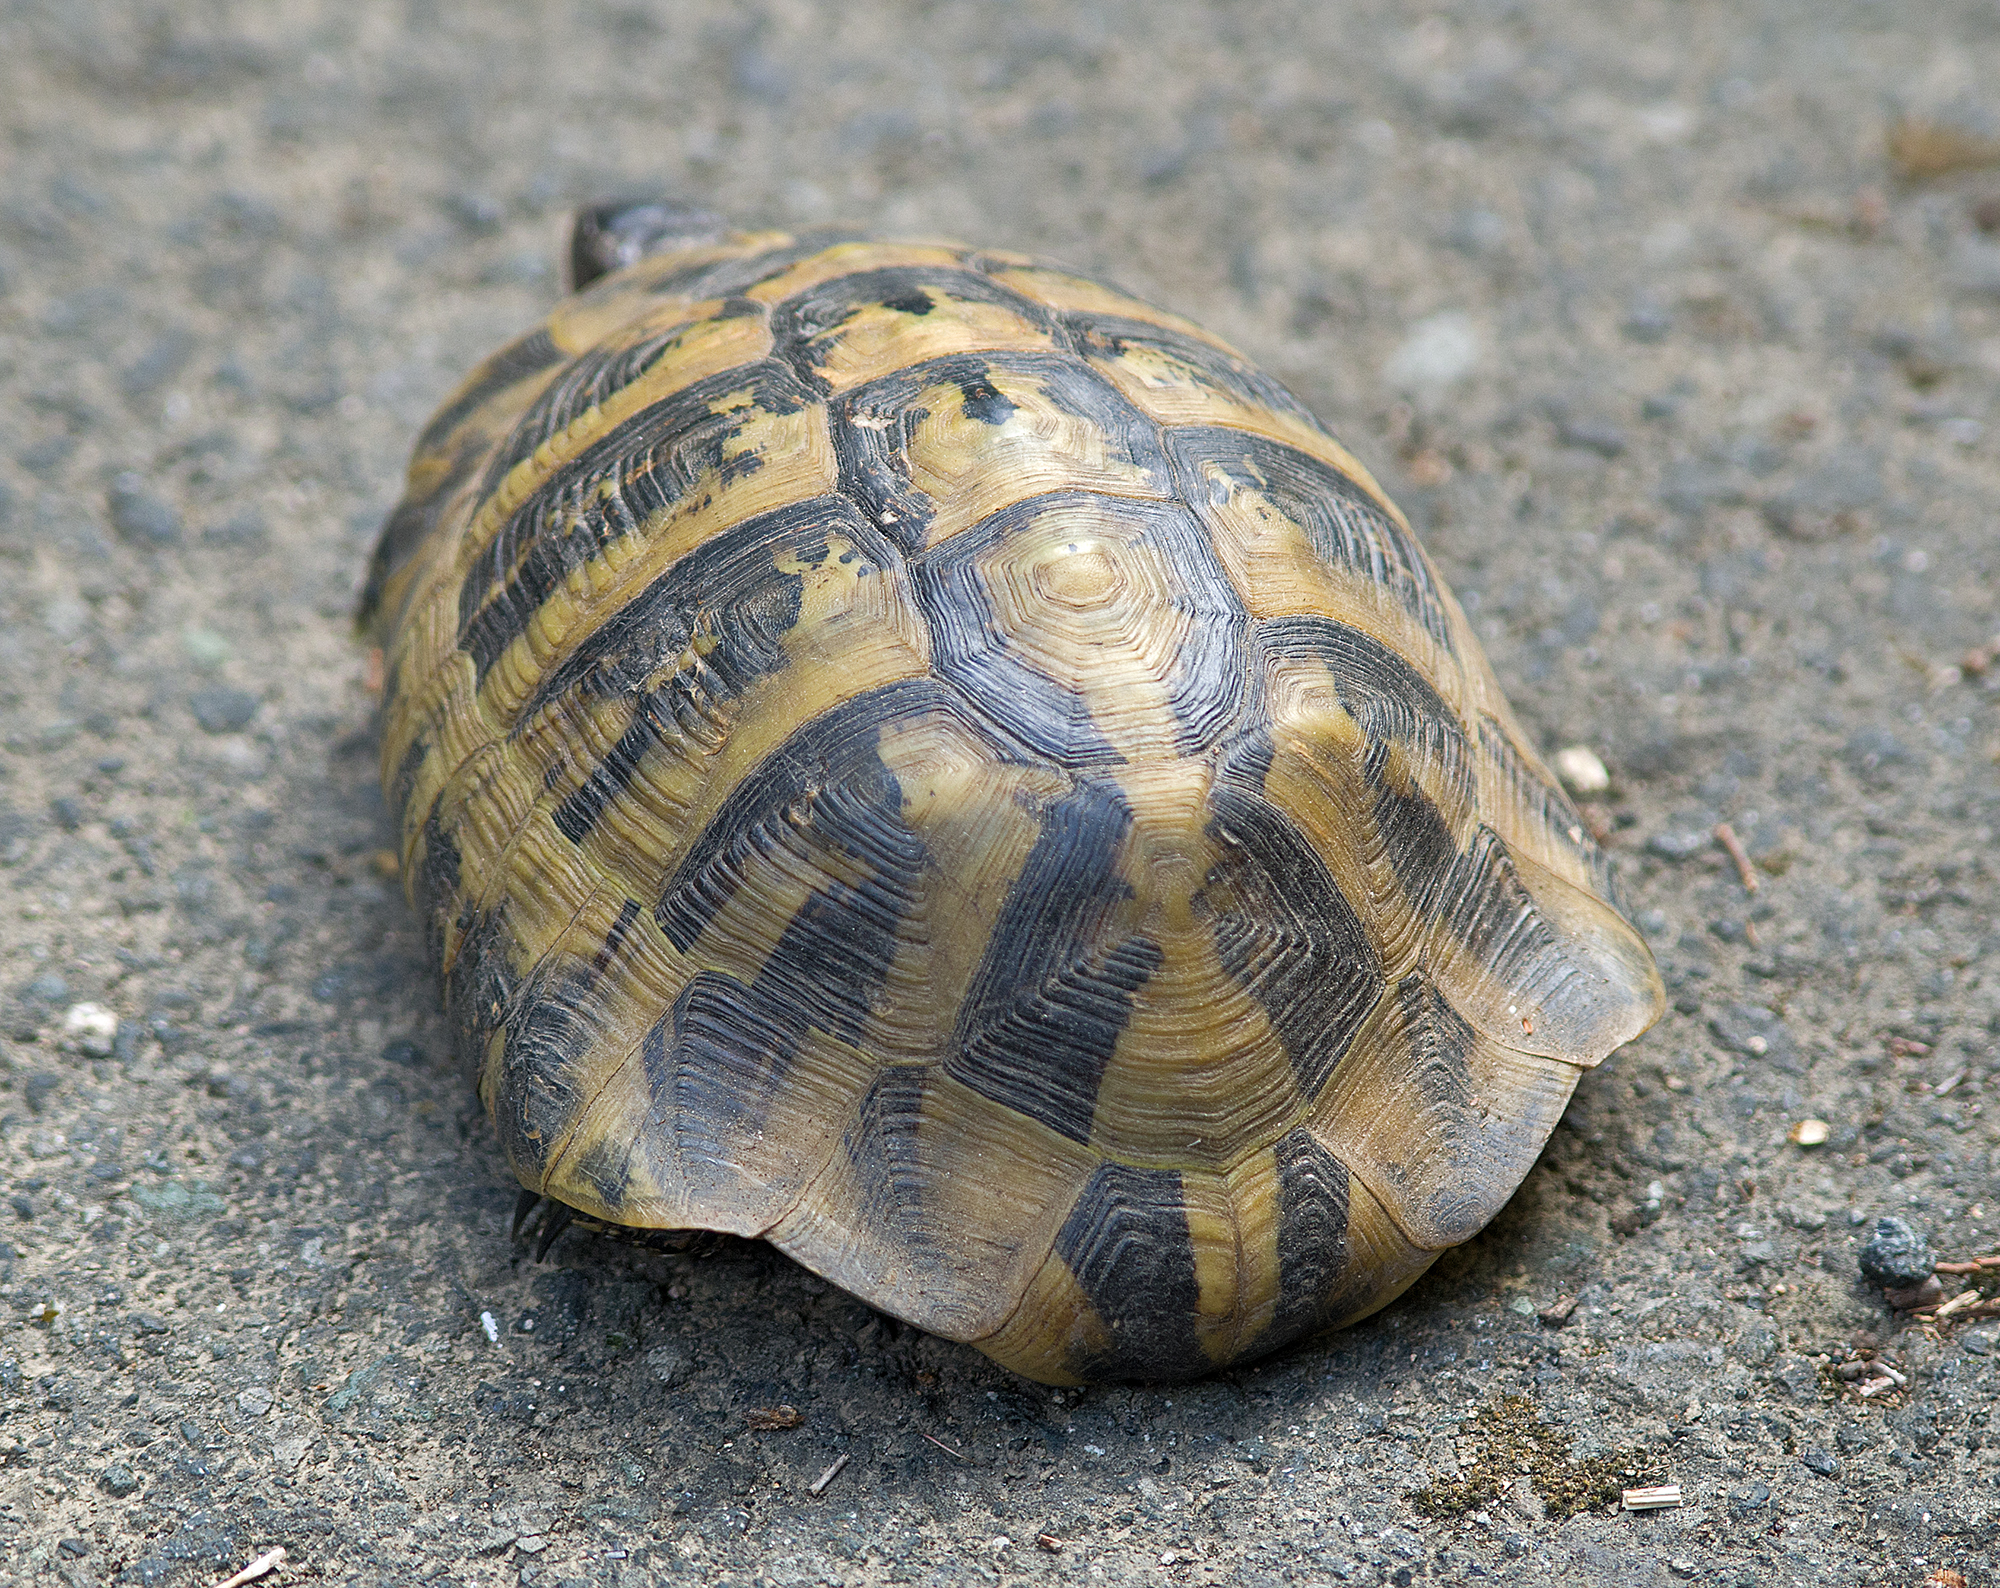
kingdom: Animalia
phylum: Chordata
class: Testudines
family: Testudinidae
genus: Testudo
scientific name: Testudo hermanni
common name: Hermann's tortoise
